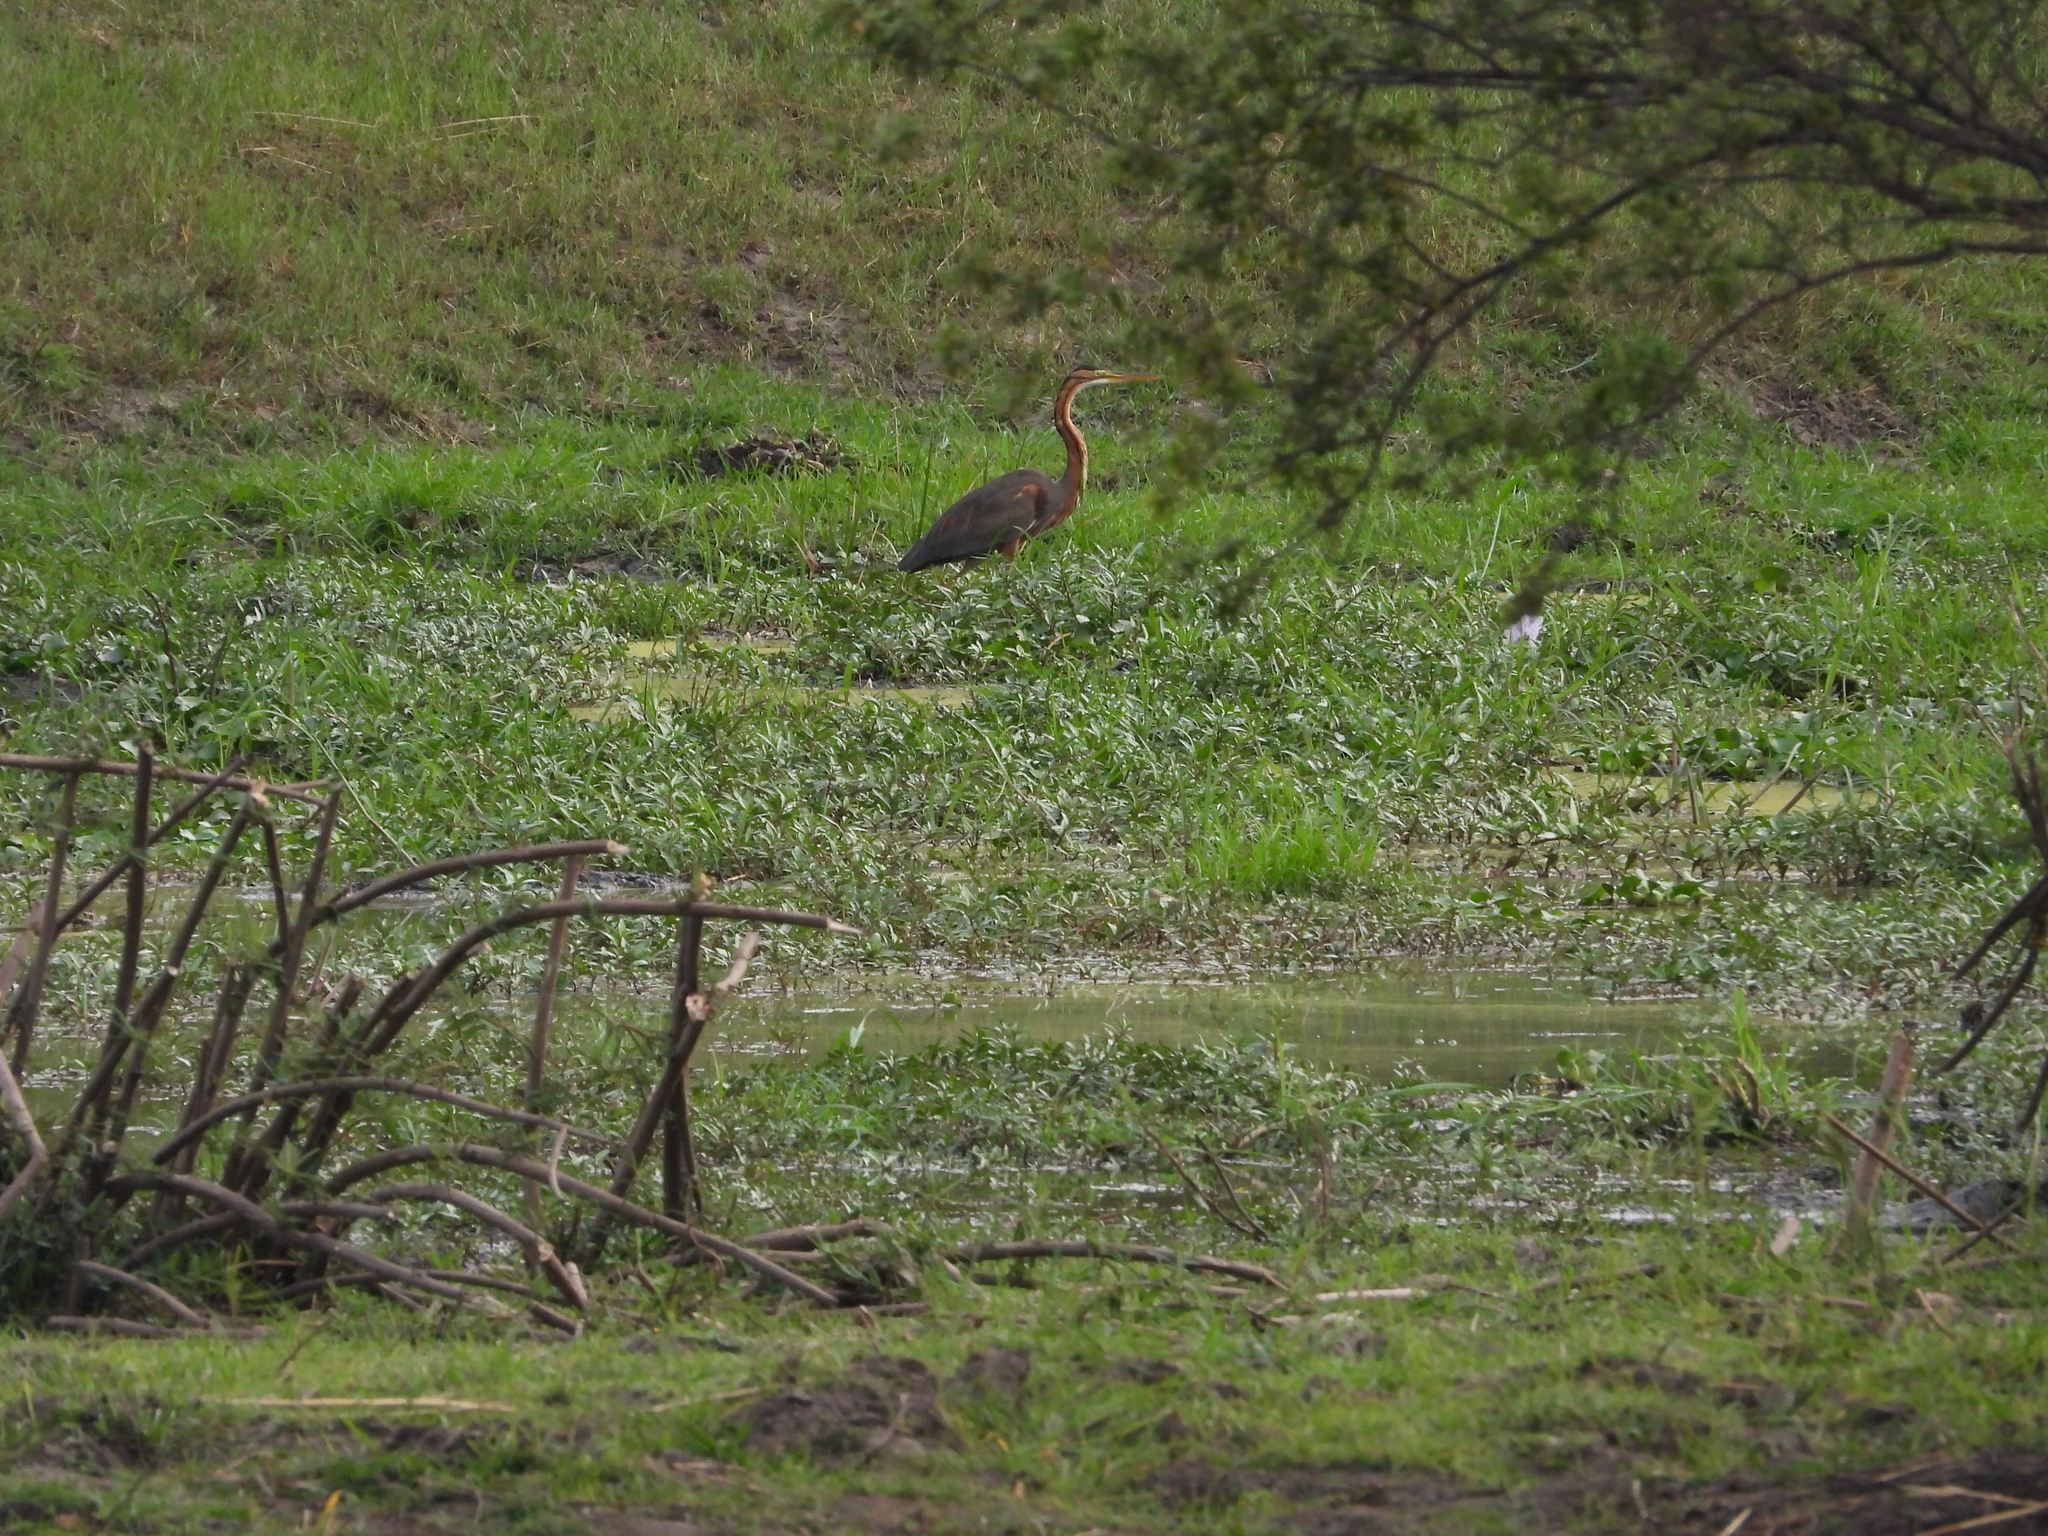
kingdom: Animalia
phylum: Chordata
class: Aves
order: Pelecaniformes
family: Ardeidae
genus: Ardea
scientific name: Ardea purpurea
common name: Purple heron
